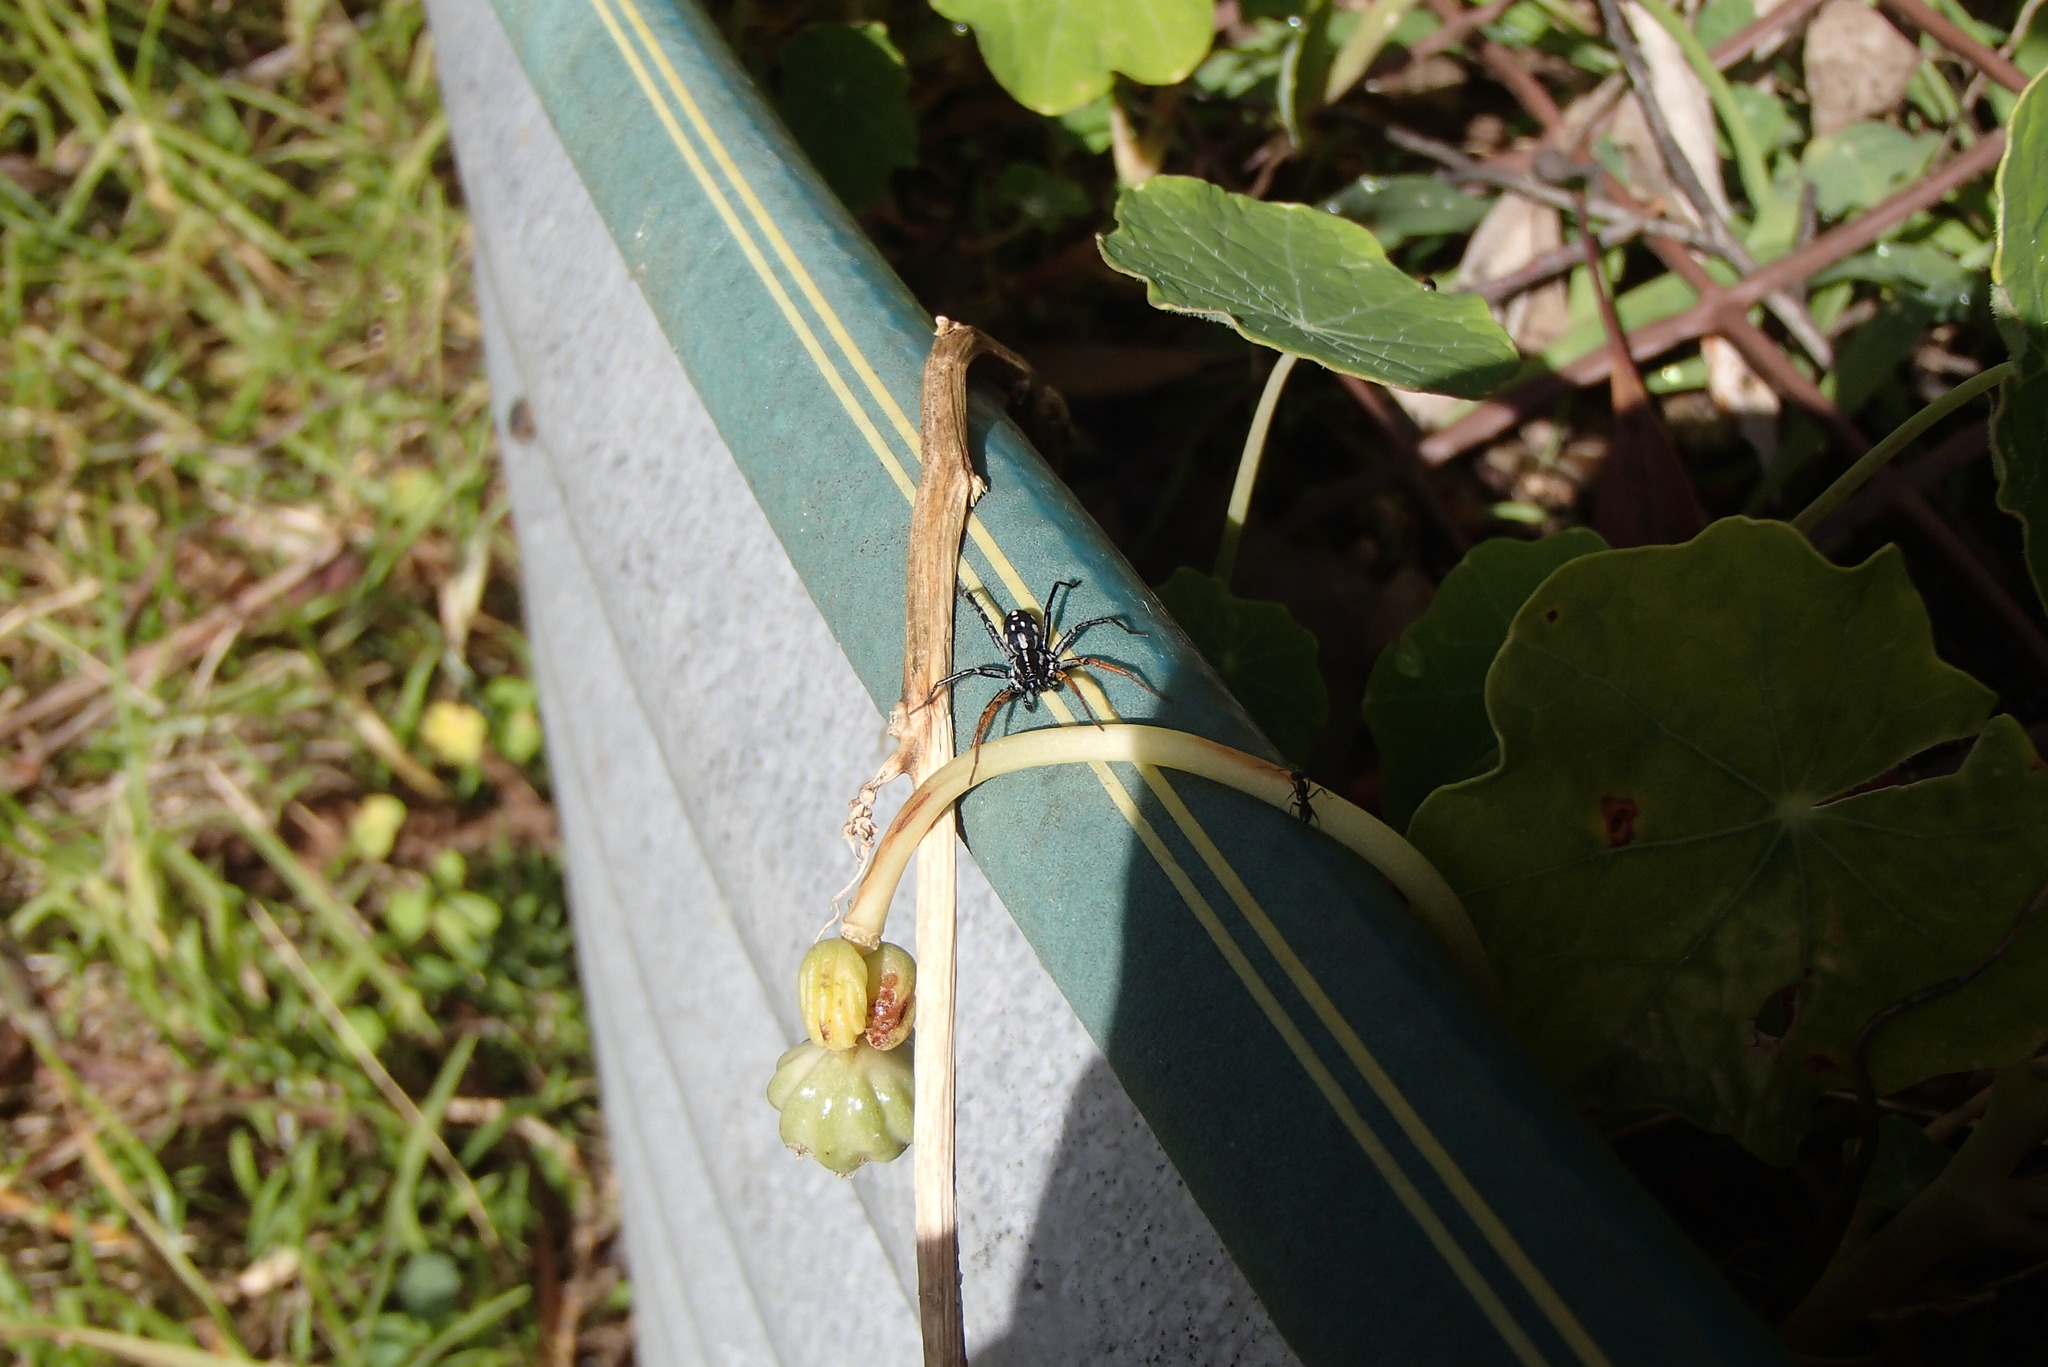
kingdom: Animalia
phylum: Arthropoda
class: Arachnida
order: Araneae
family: Corinnidae
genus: Nyssus
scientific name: Nyssus coloripes
